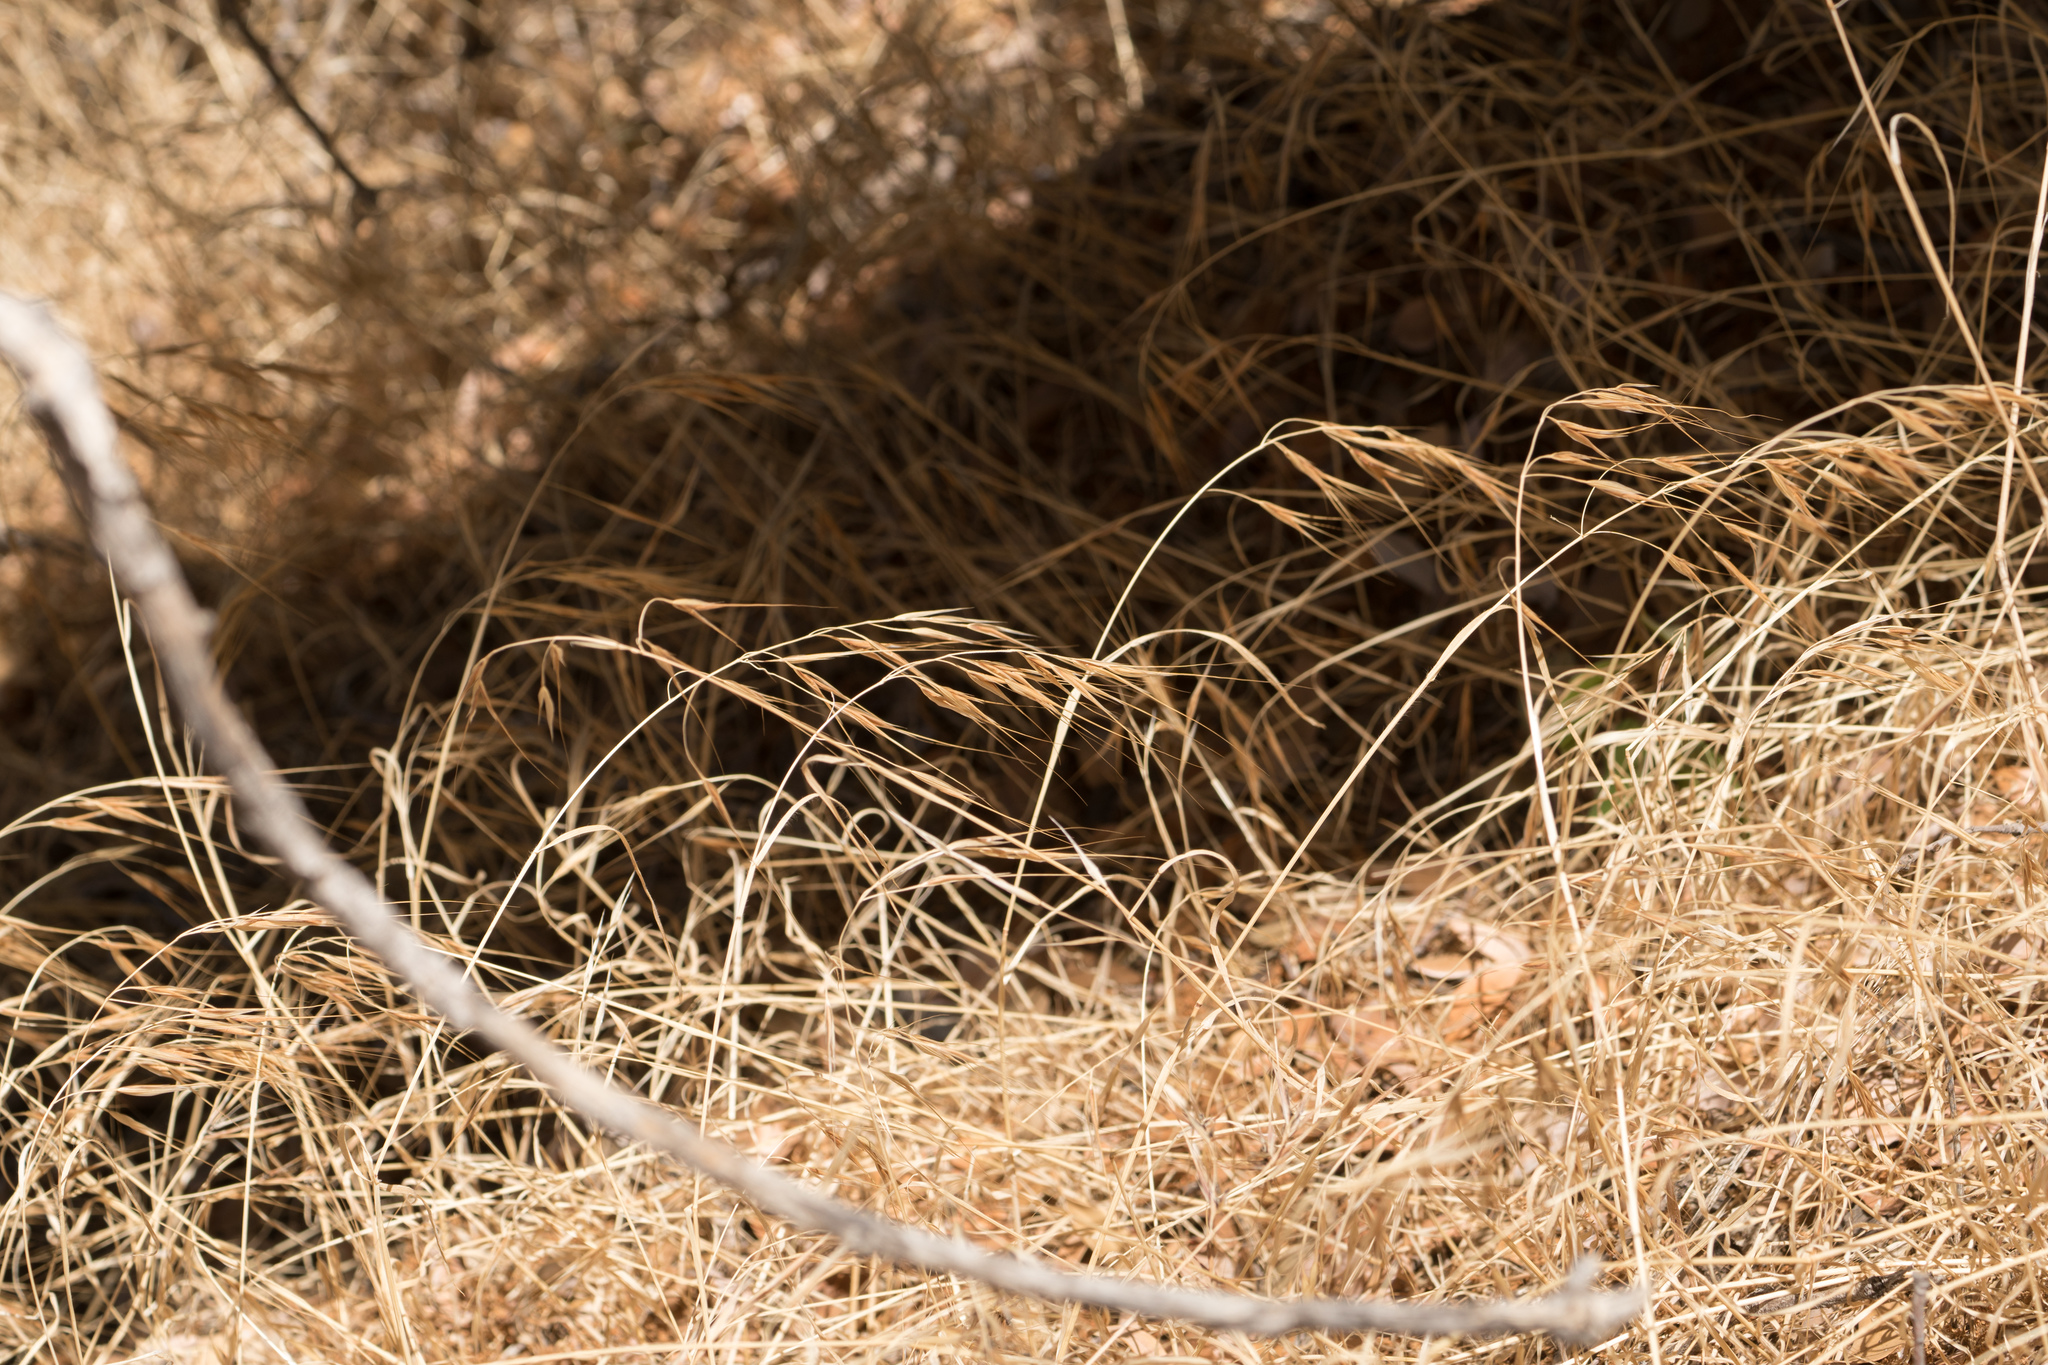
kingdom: Plantae
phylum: Tracheophyta
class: Liliopsida
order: Poales
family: Poaceae
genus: Bromus
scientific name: Bromus diandrus
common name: Ripgut brome
